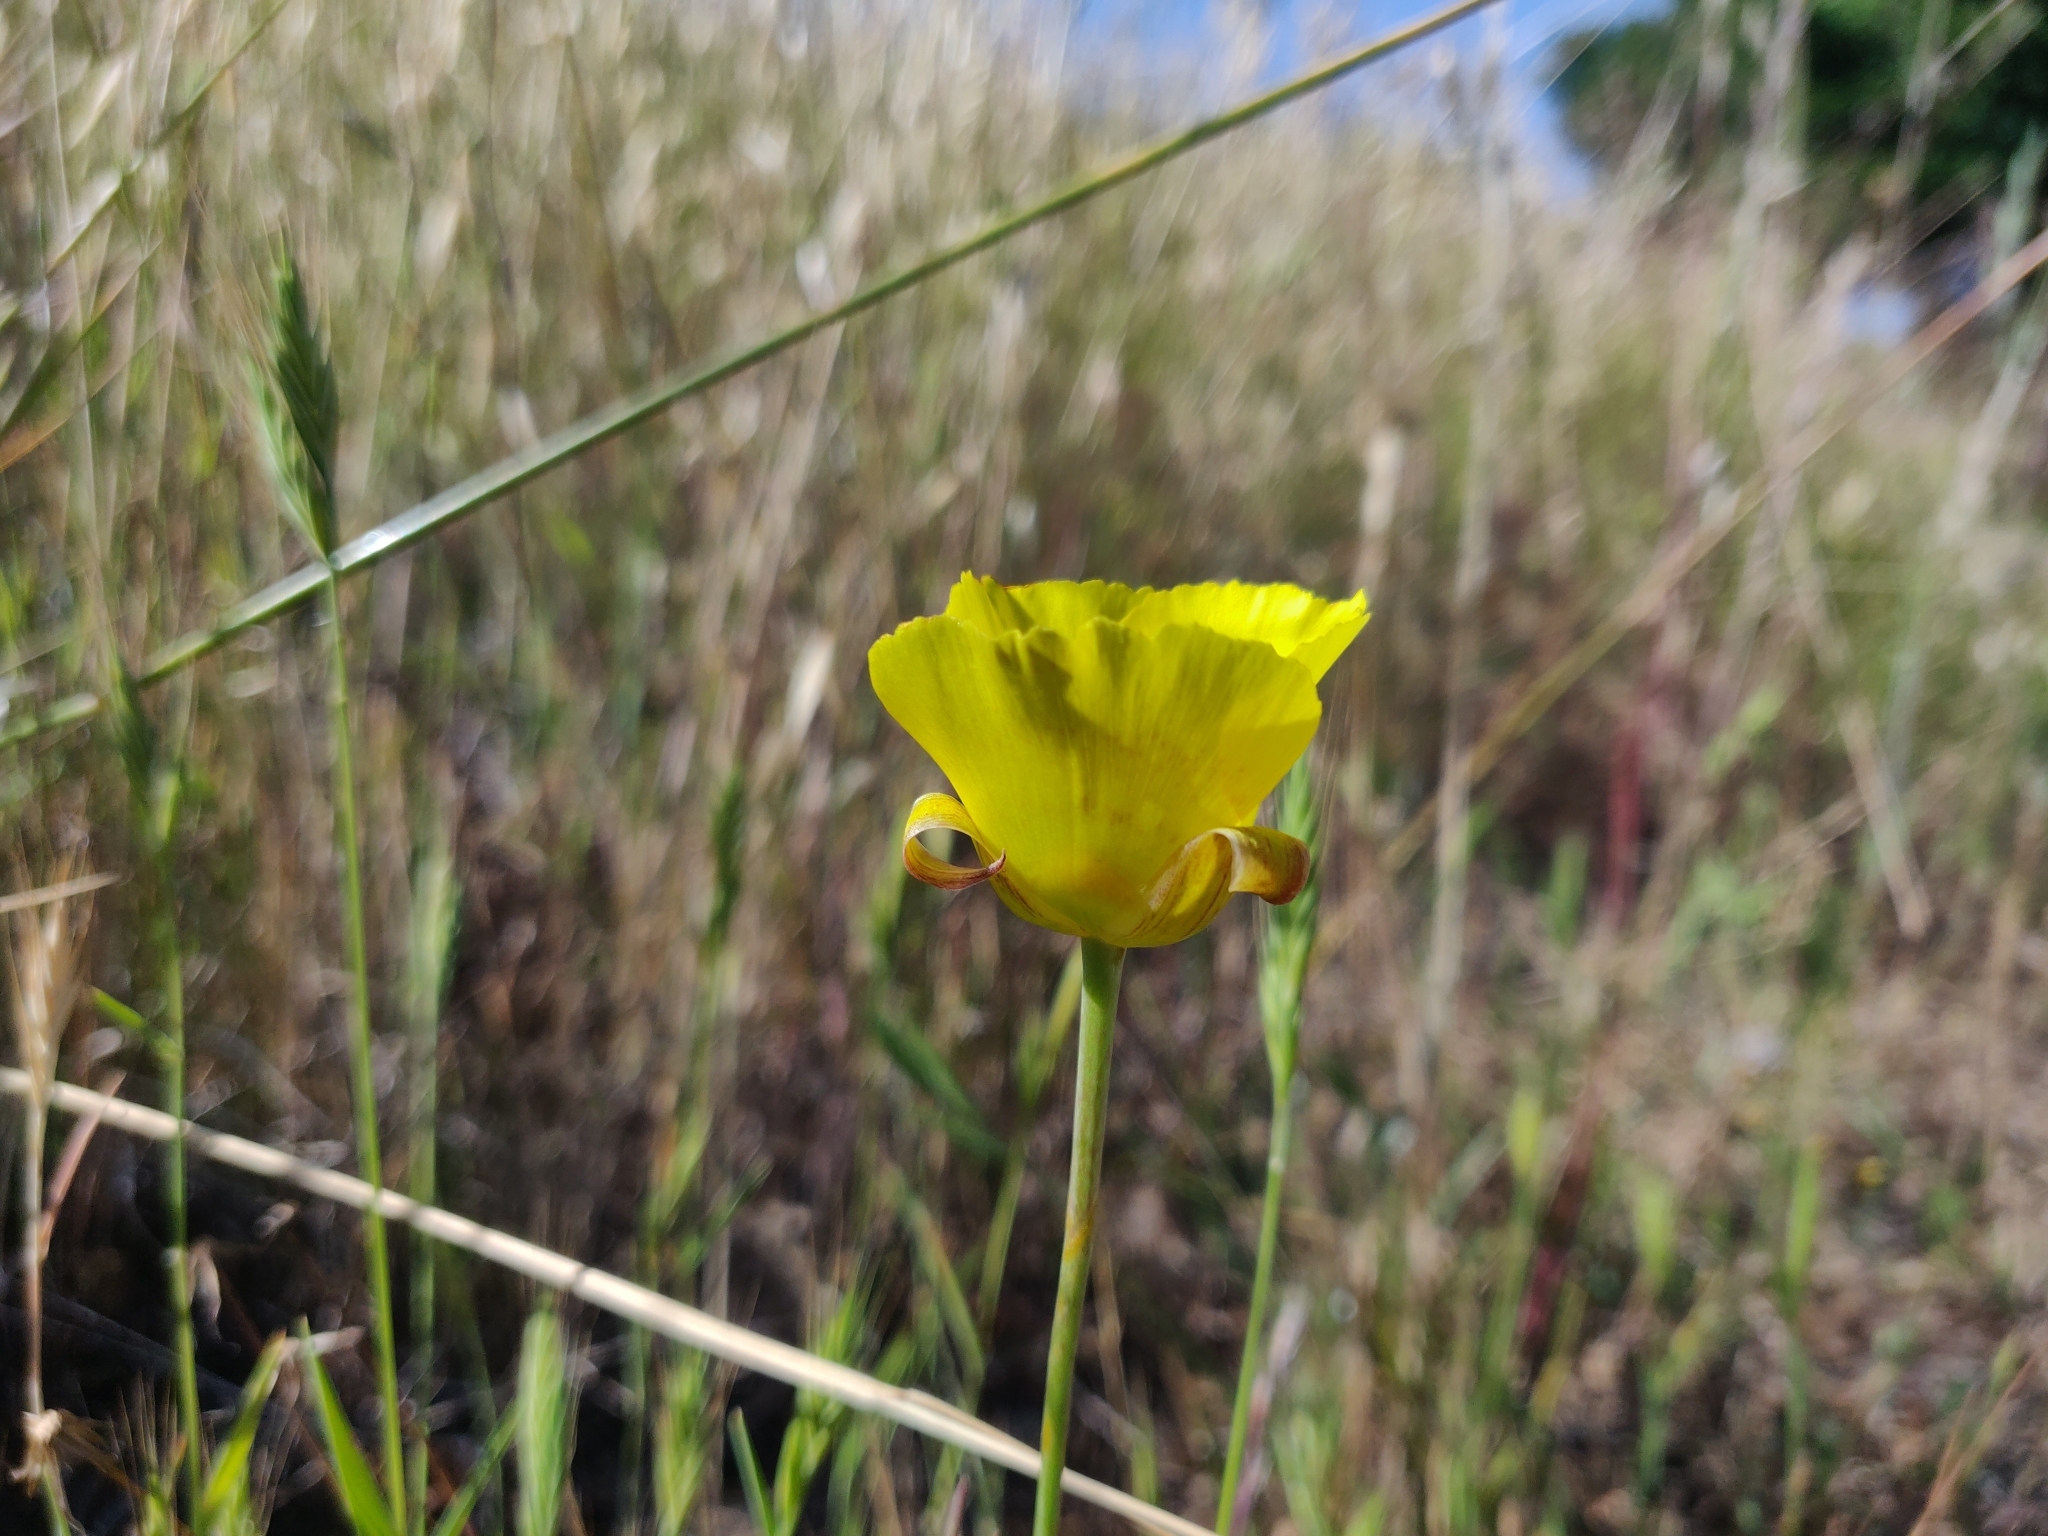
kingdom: Plantae
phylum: Tracheophyta
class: Liliopsida
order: Liliales
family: Liliaceae
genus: Calochortus
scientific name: Calochortus luteus
